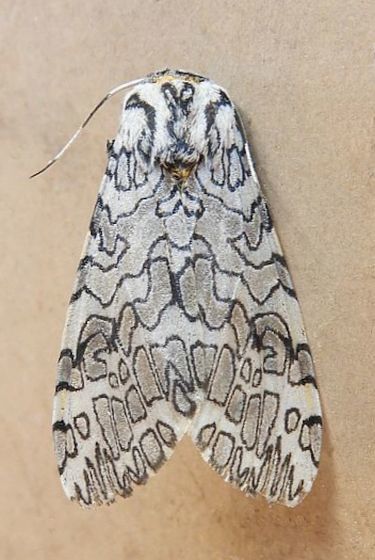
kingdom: Animalia
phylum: Arthropoda
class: Insecta
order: Lepidoptera
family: Erebidae
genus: Hypercompe
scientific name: Hypercompe suffusa
